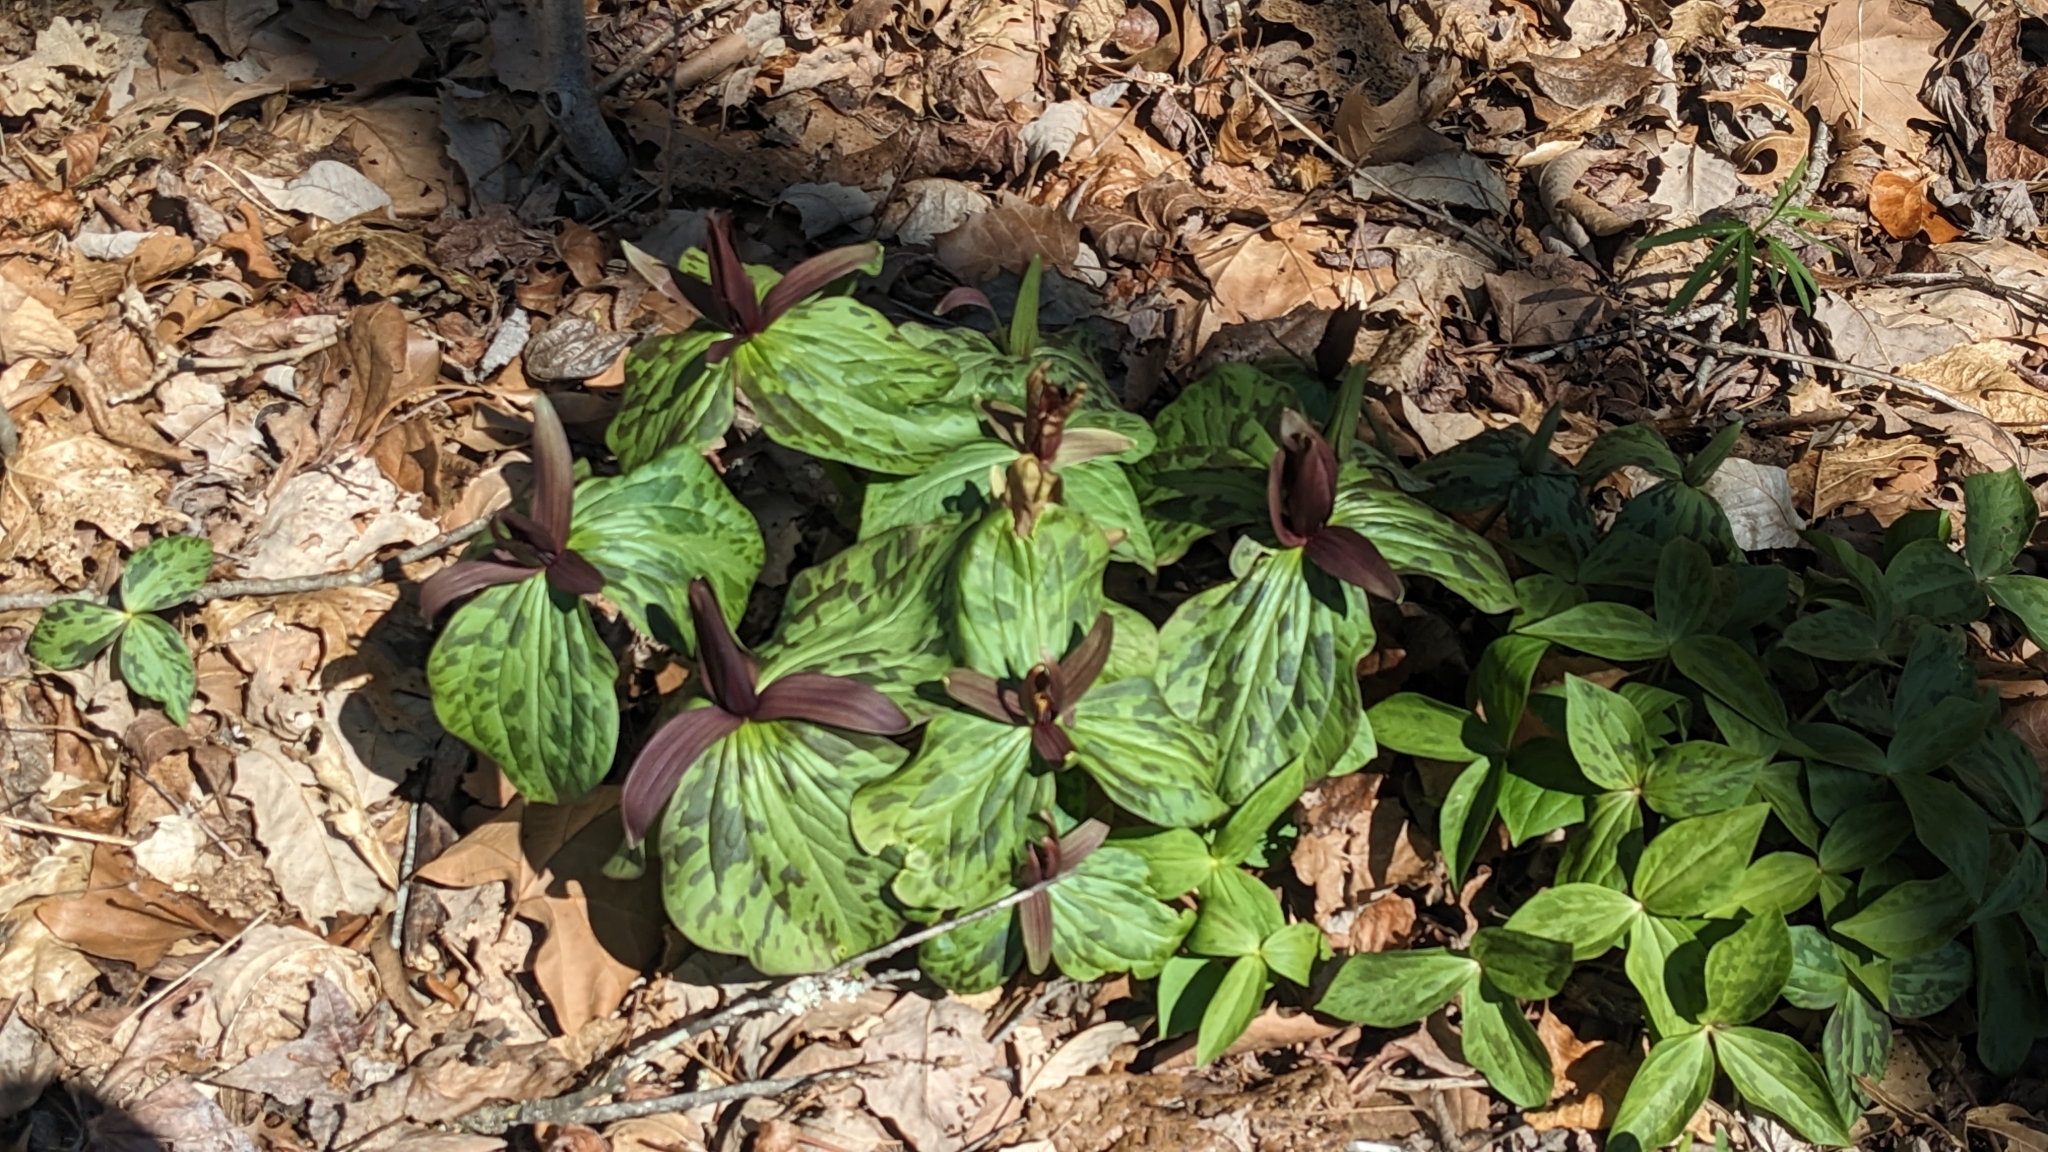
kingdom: Plantae
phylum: Tracheophyta
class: Liliopsida
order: Liliales
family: Melanthiaceae
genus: Trillium
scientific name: Trillium cuneatum
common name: Cuneate trillium
